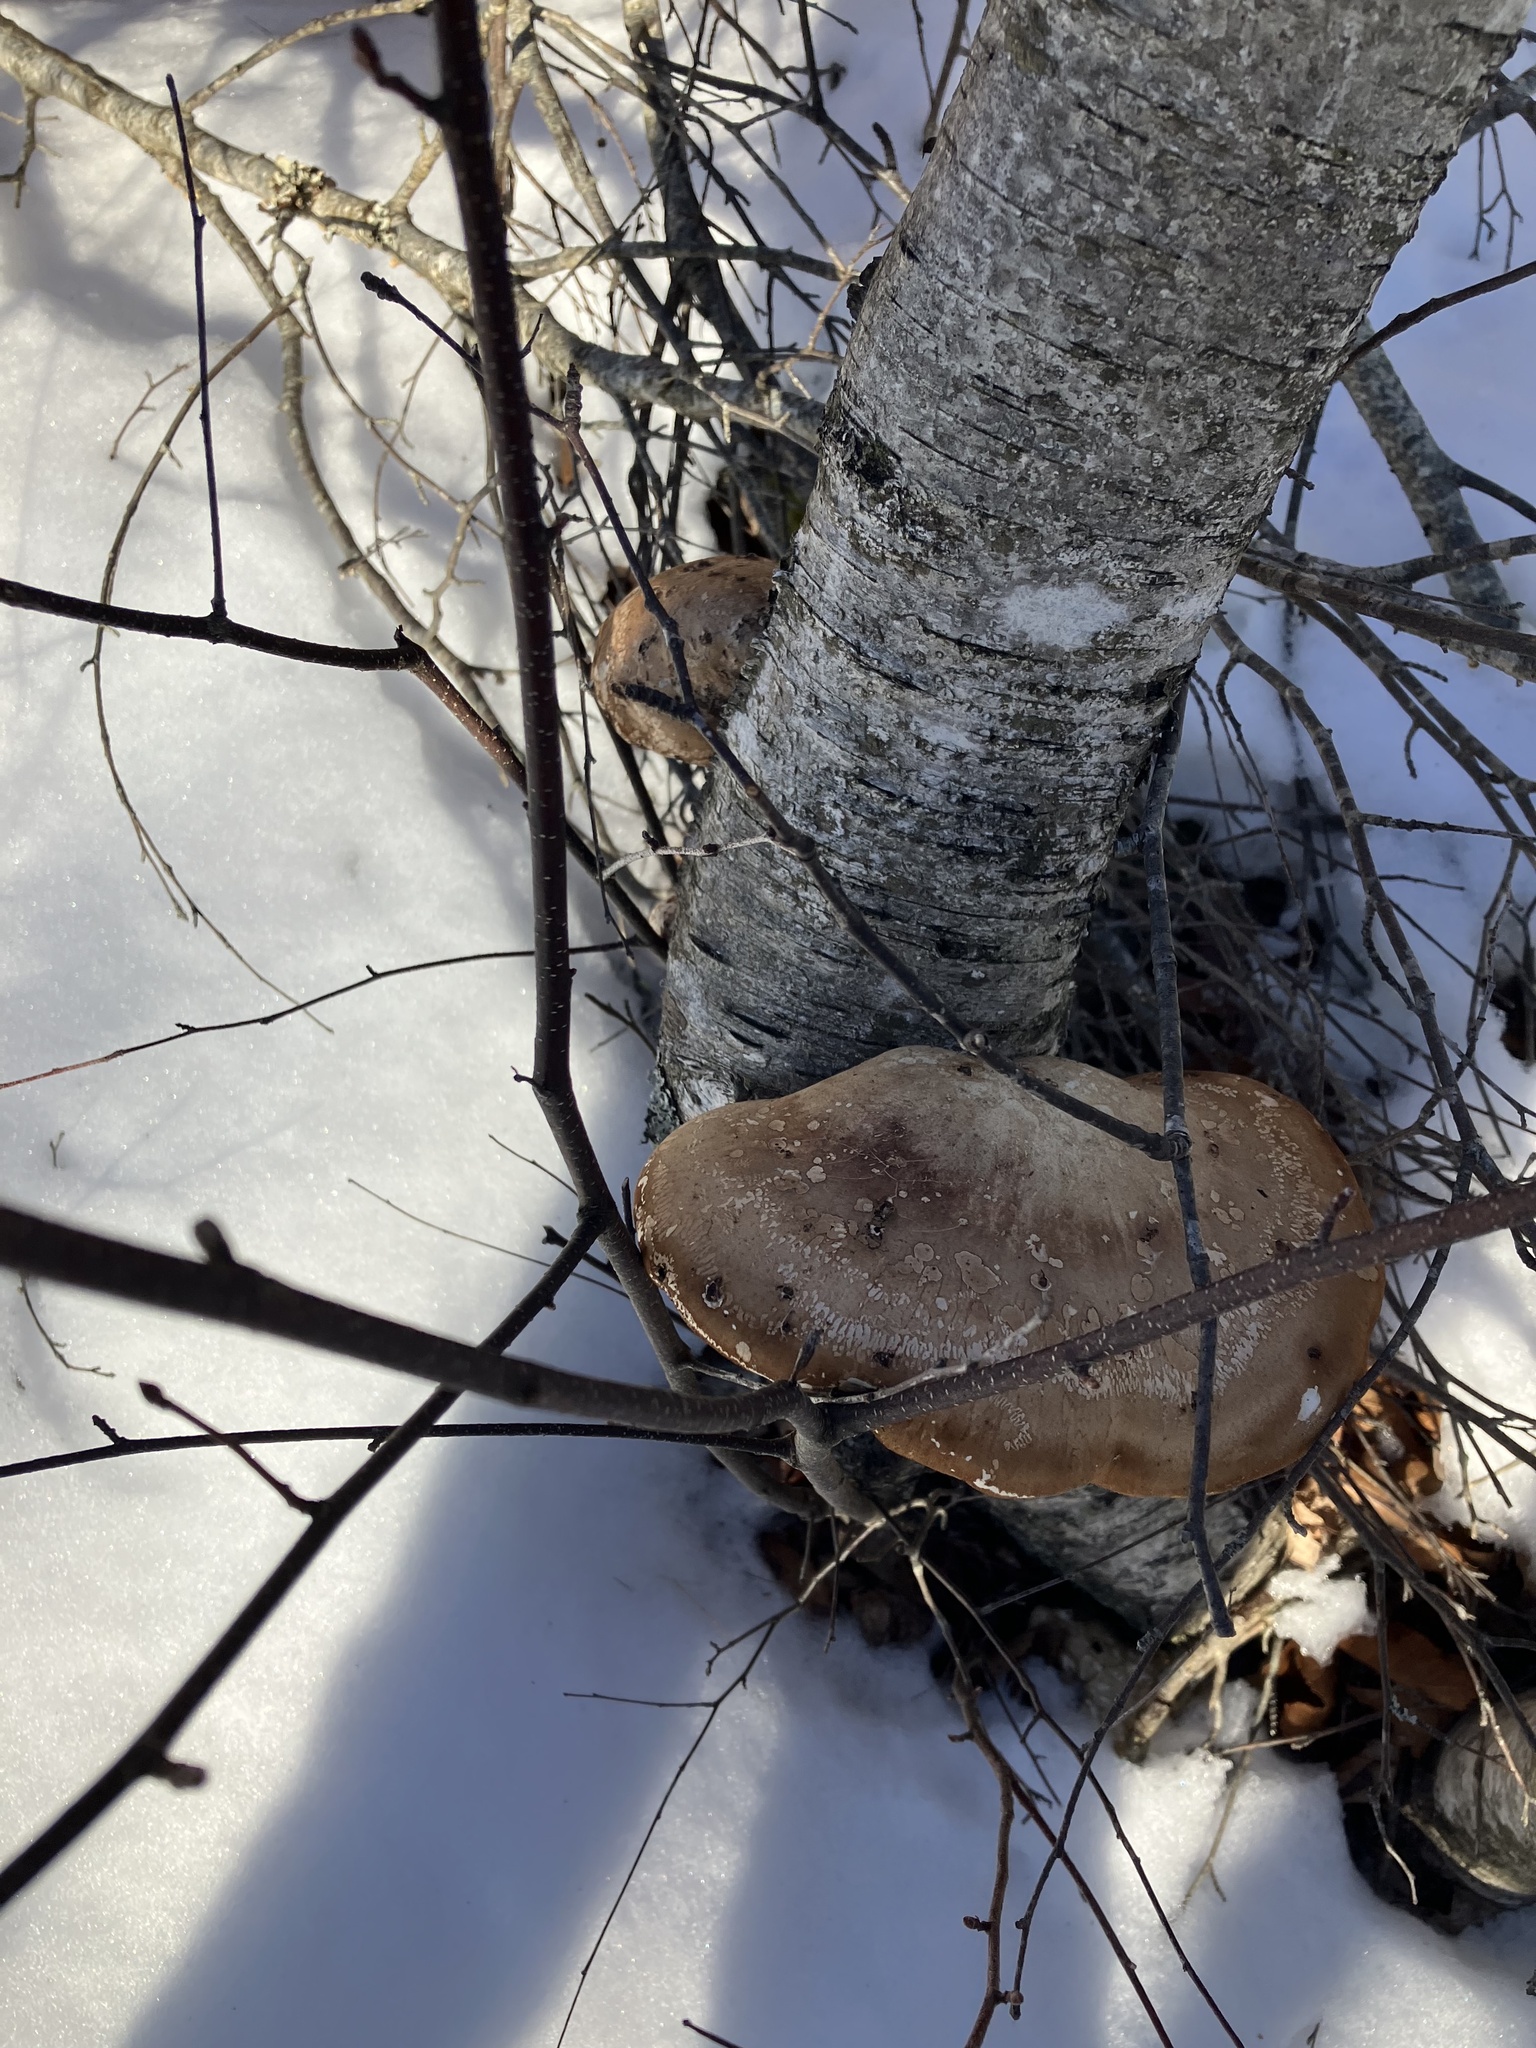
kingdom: Fungi
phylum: Basidiomycota
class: Agaricomycetes
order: Polyporales
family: Fomitopsidaceae
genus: Fomitopsis
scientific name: Fomitopsis betulina
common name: Birch polypore
